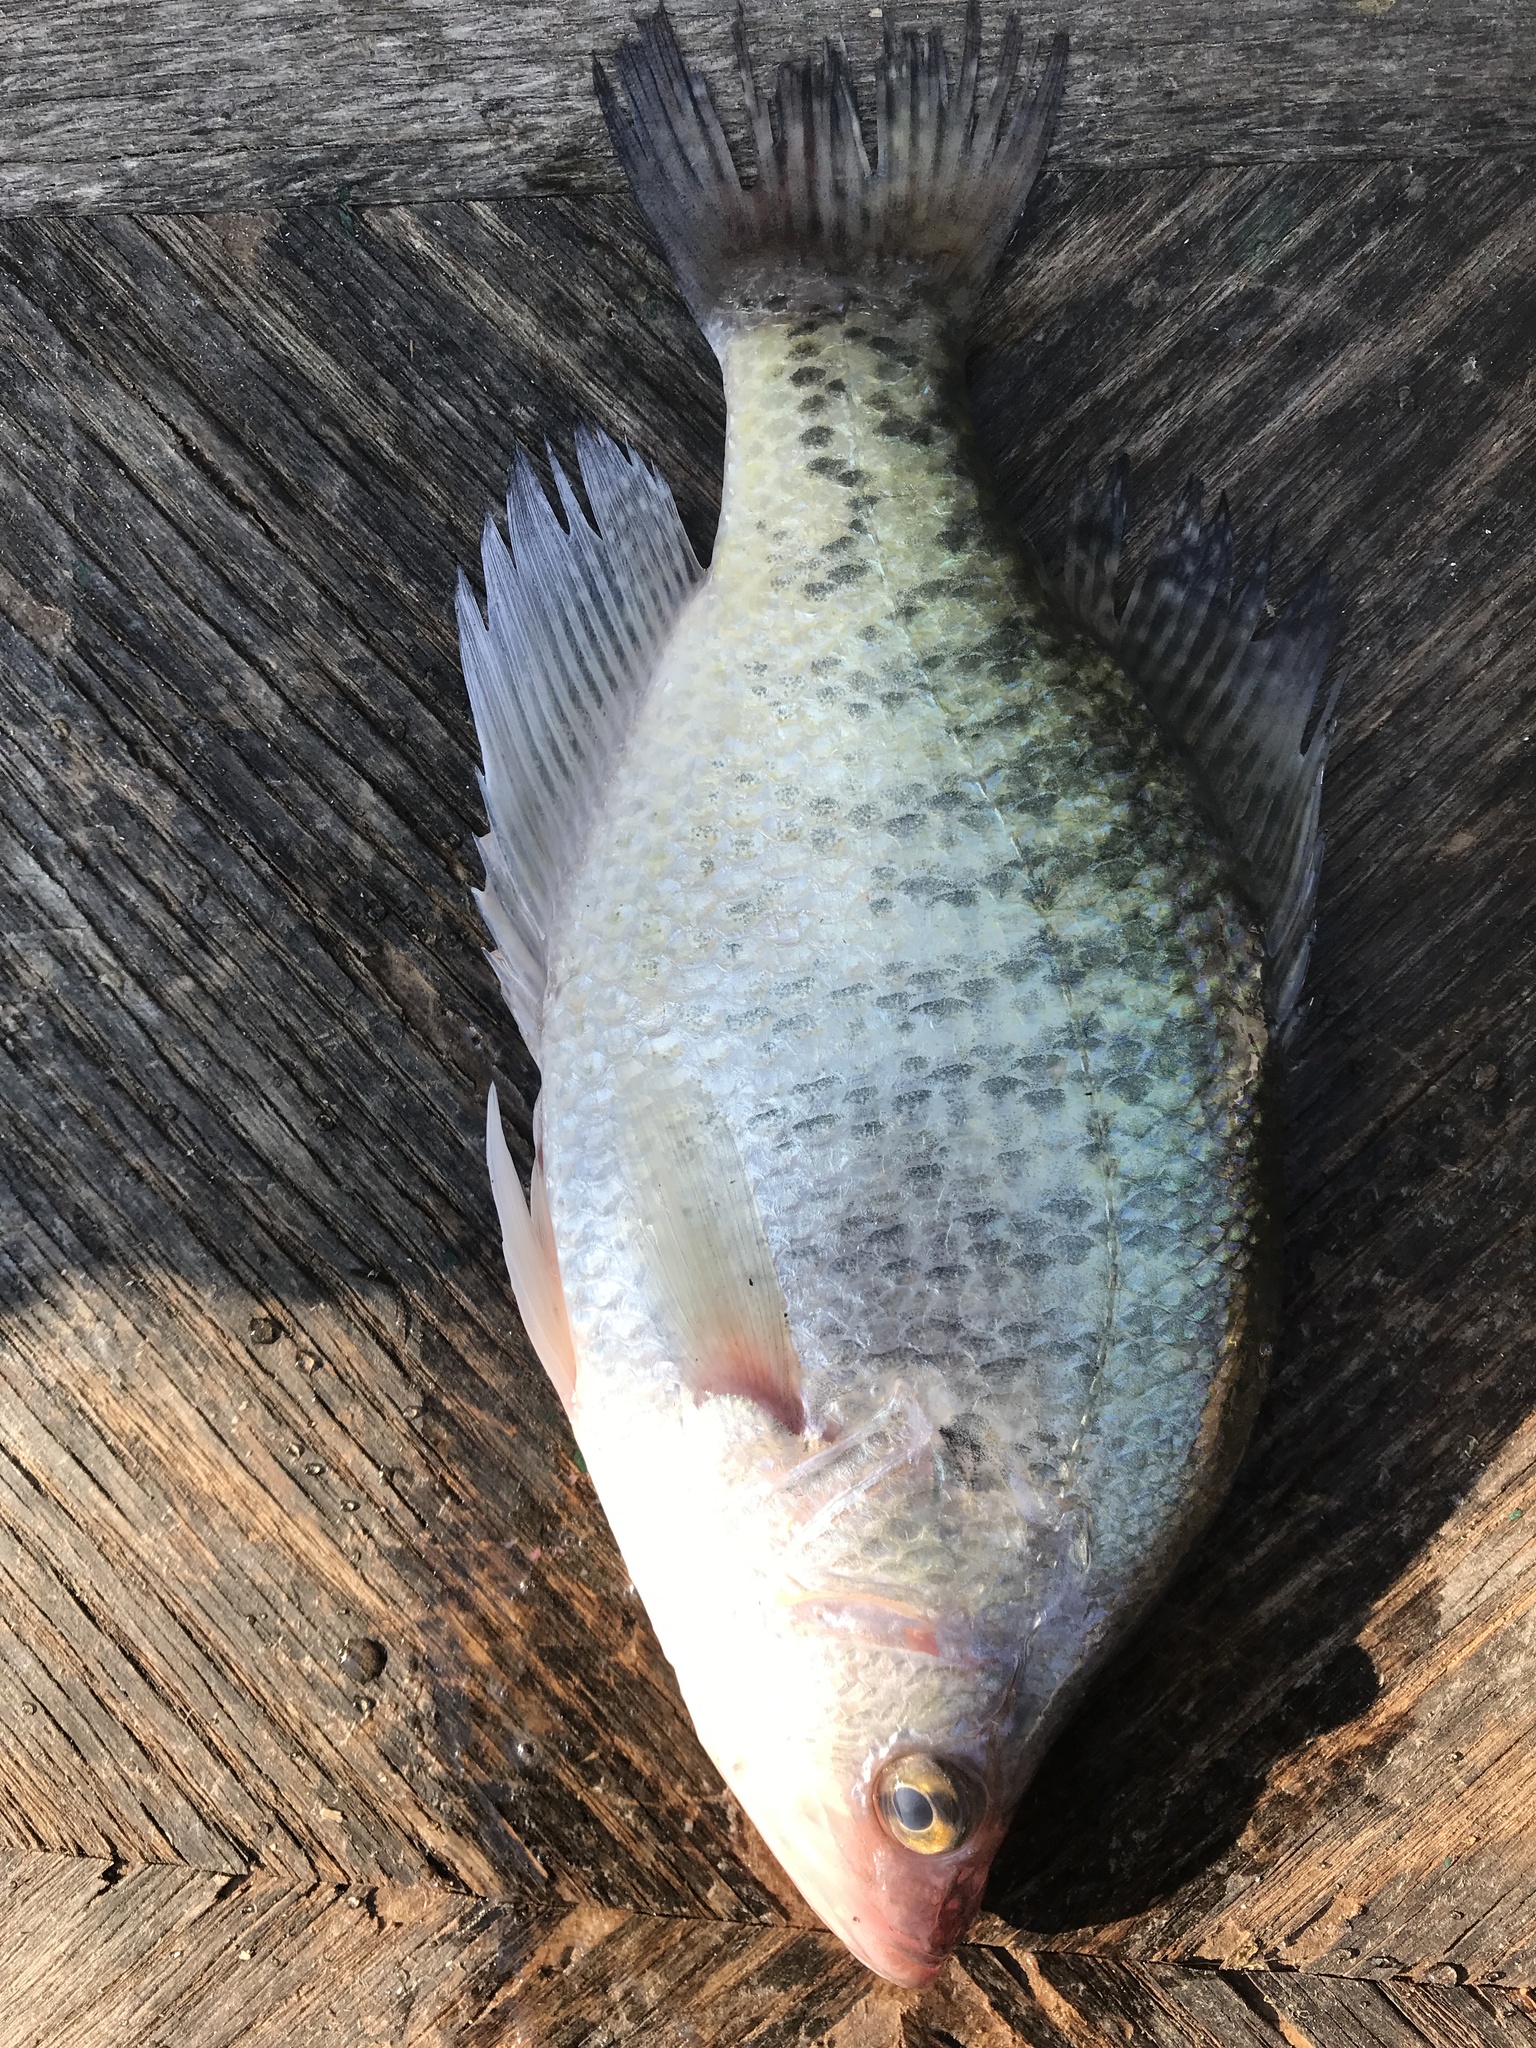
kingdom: Animalia
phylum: Chordata
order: Perciformes
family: Centrarchidae
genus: Pomoxis
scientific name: Pomoxis annularis
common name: White crappie
